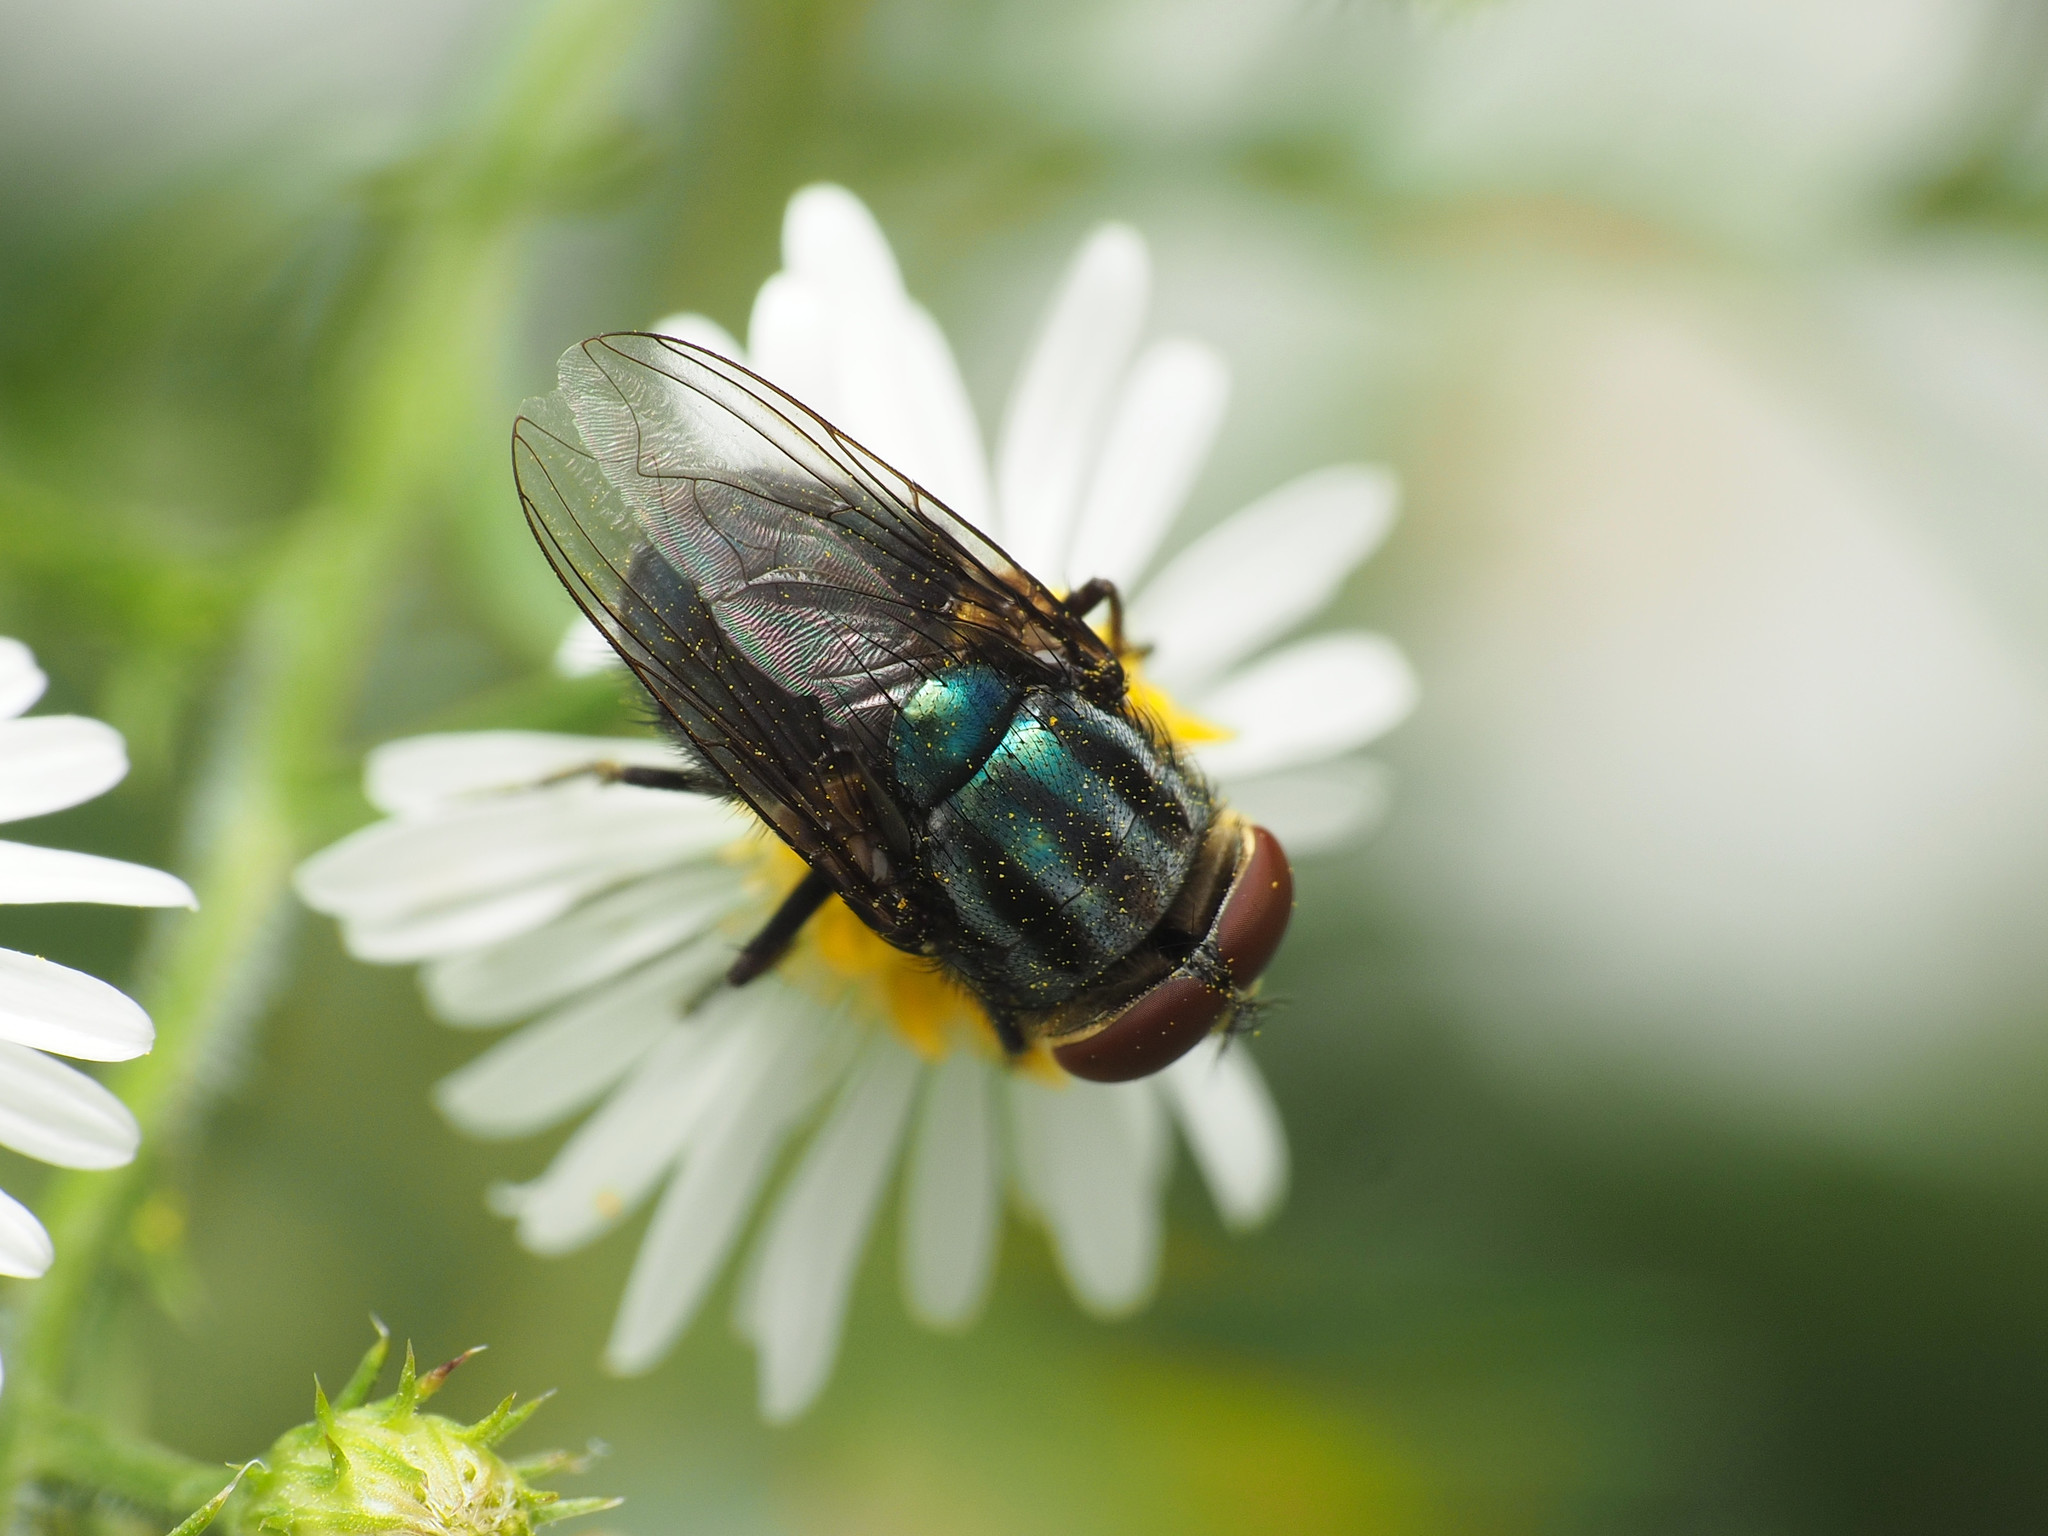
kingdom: Animalia
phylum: Arthropoda
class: Insecta
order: Diptera
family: Calliphoridae
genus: Cochliomyia
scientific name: Cochliomyia macellaria
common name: Secondary screwworm
